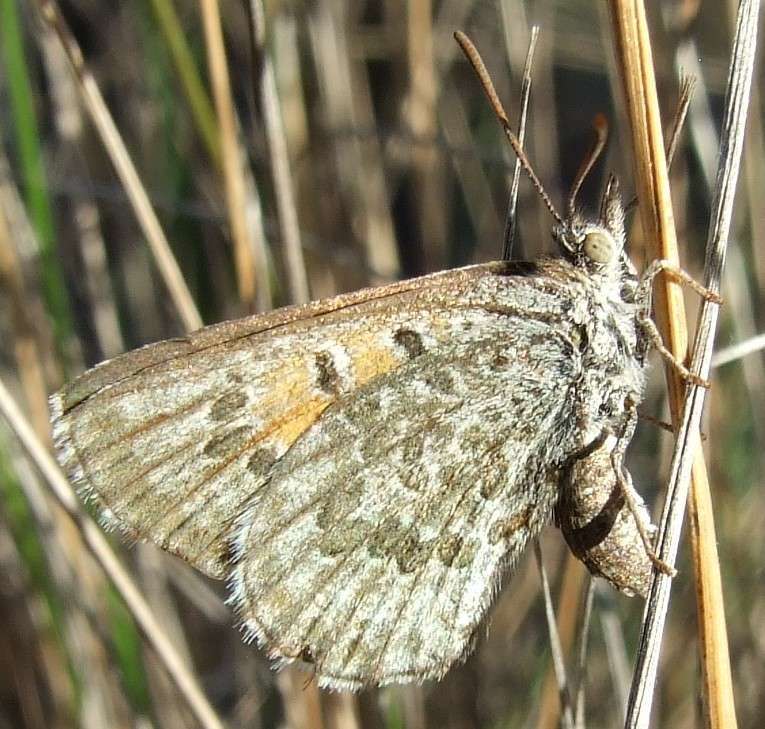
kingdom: Animalia
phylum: Arthropoda
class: Insecta
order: Lepidoptera
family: Lycaenidae
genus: Lucia
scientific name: Lucia limbaria
